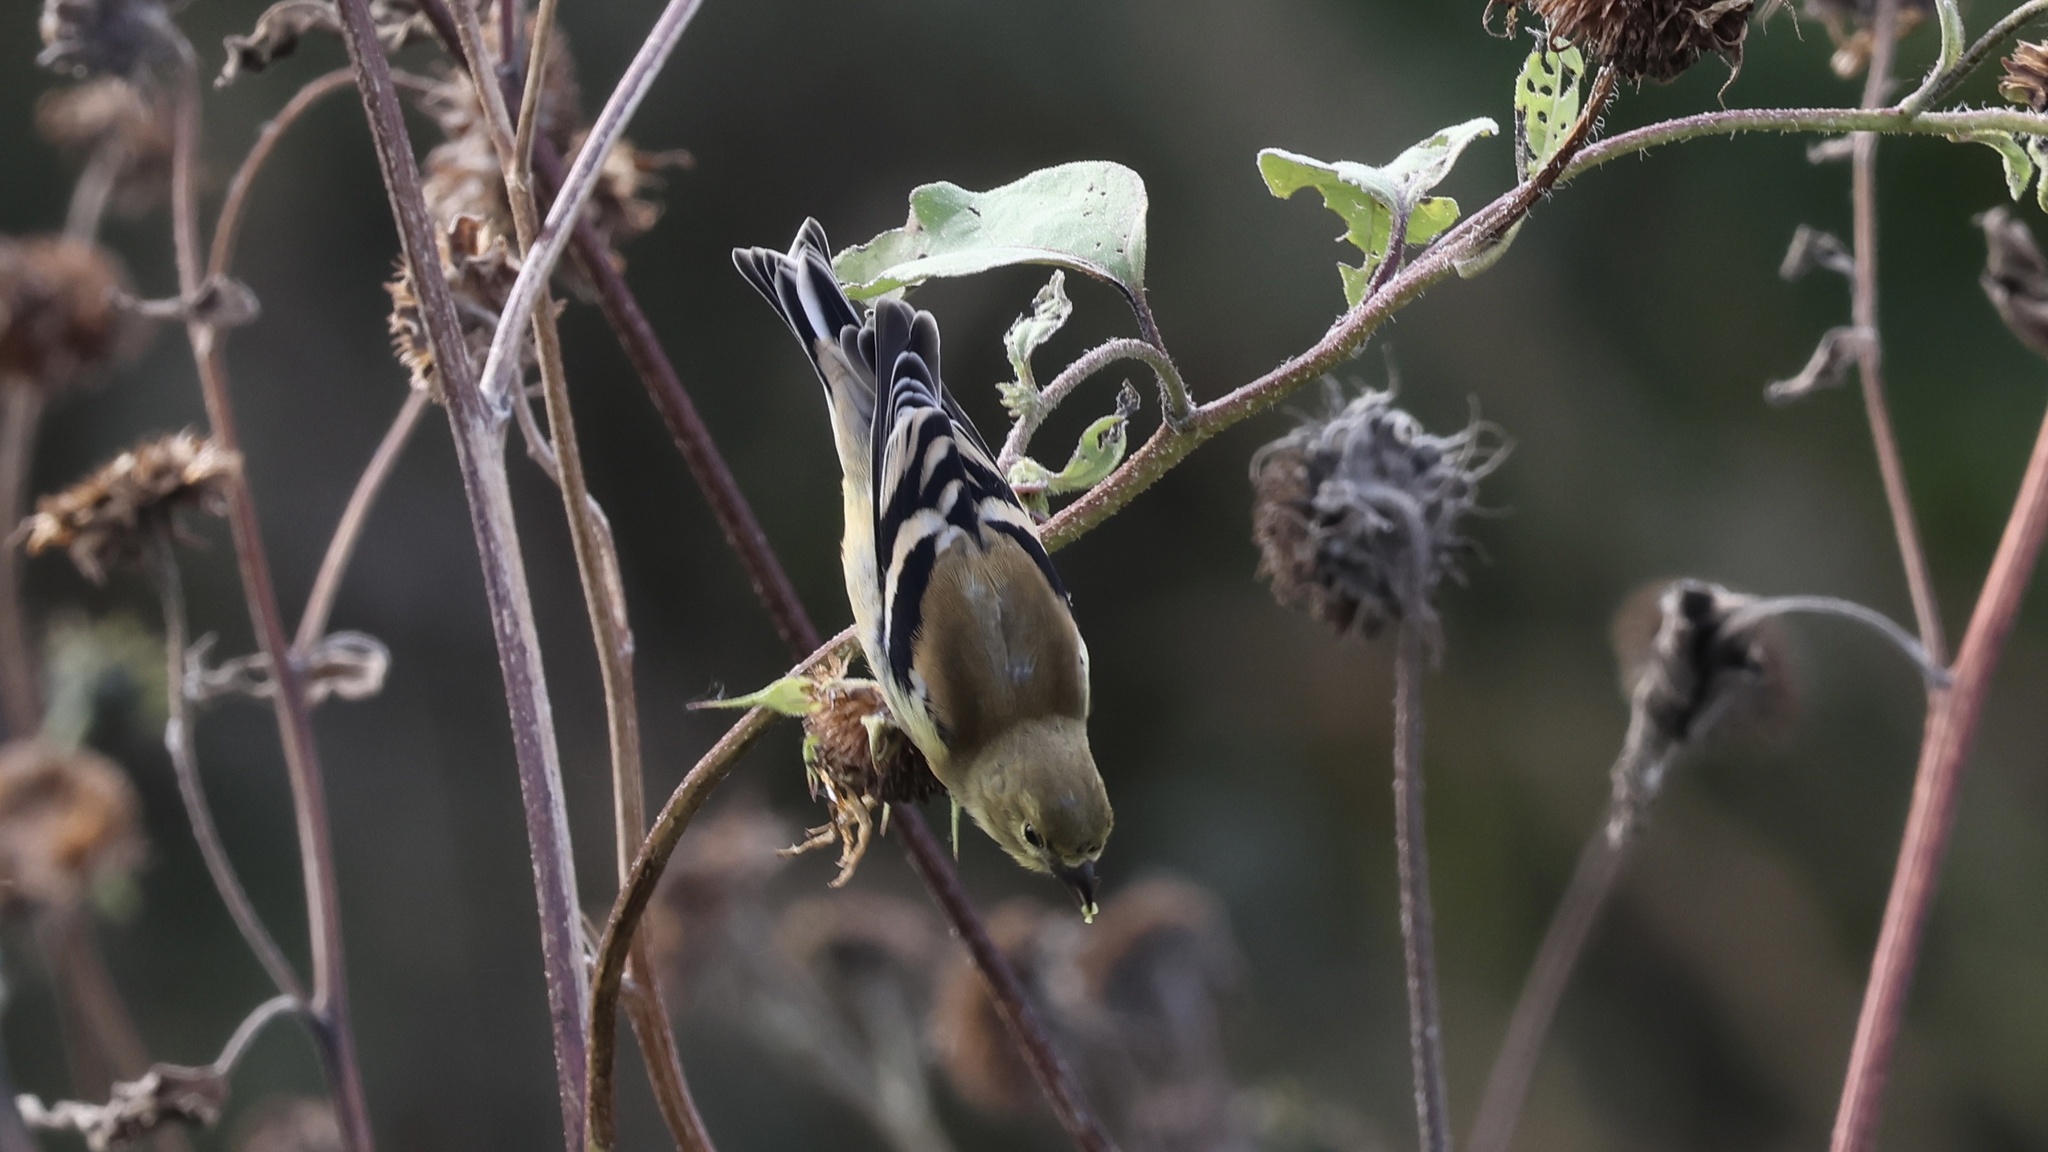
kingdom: Animalia
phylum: Chordata
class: Aves
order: Passeriformes
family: Fringillidae
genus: Spinus
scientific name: Spinus tristis
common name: American goldfinch
